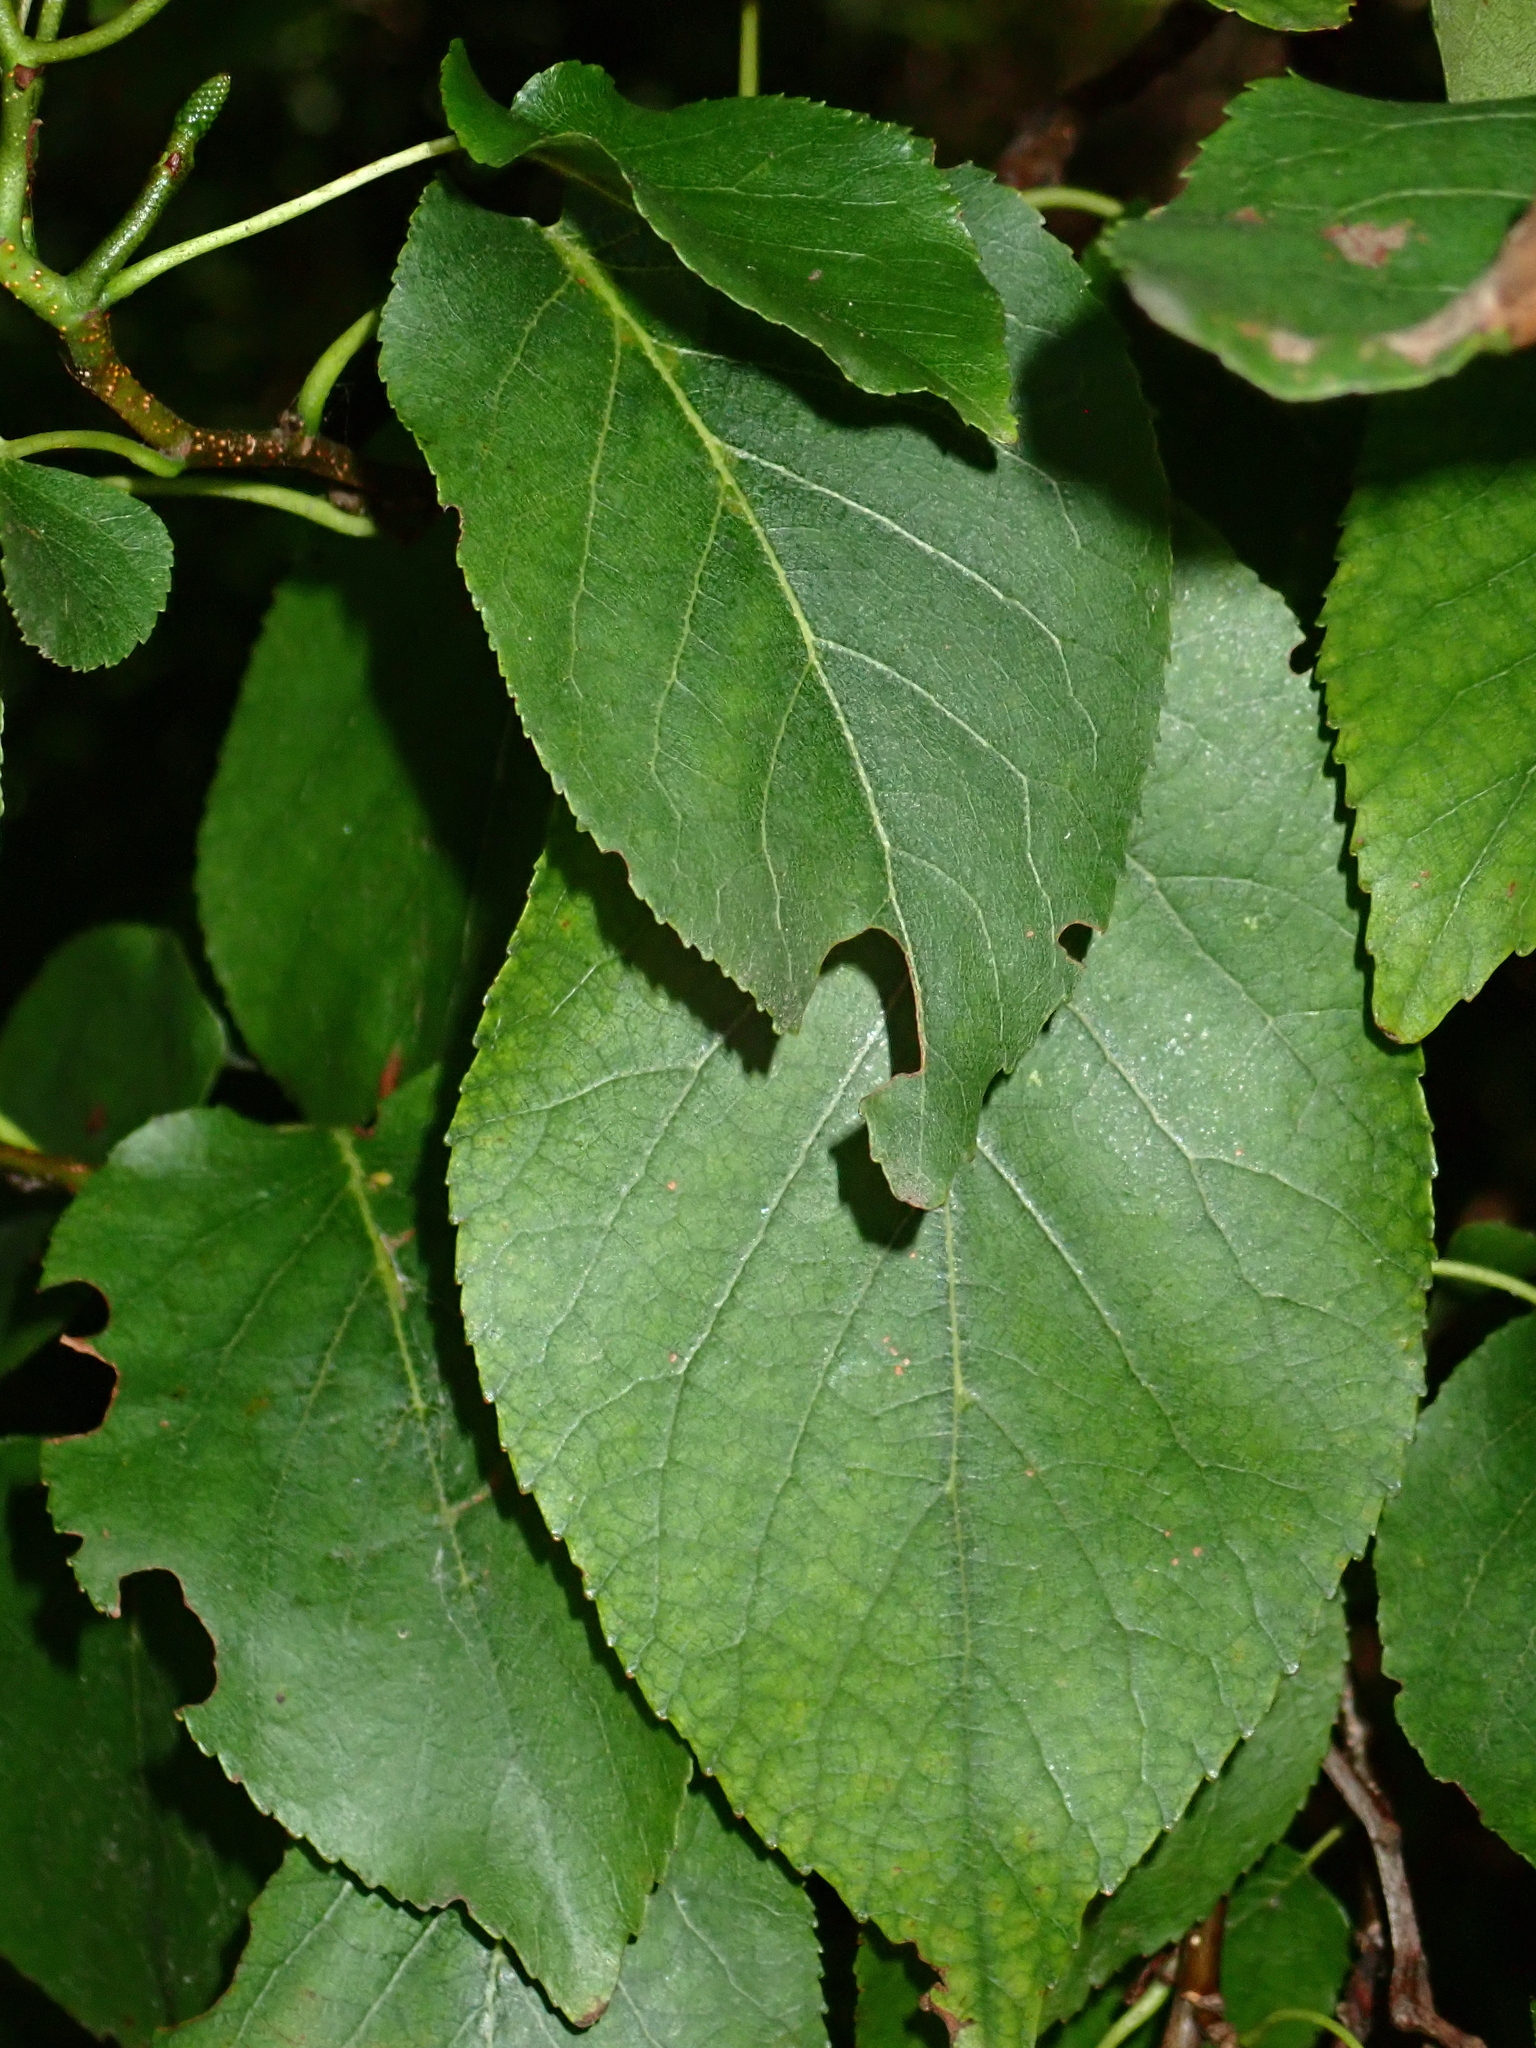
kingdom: Plantae
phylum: Tracheophyta
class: Magnoliopsida
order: Fagales
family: Betulaceae
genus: Alnus
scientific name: Alnus cordata
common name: Italian alder
